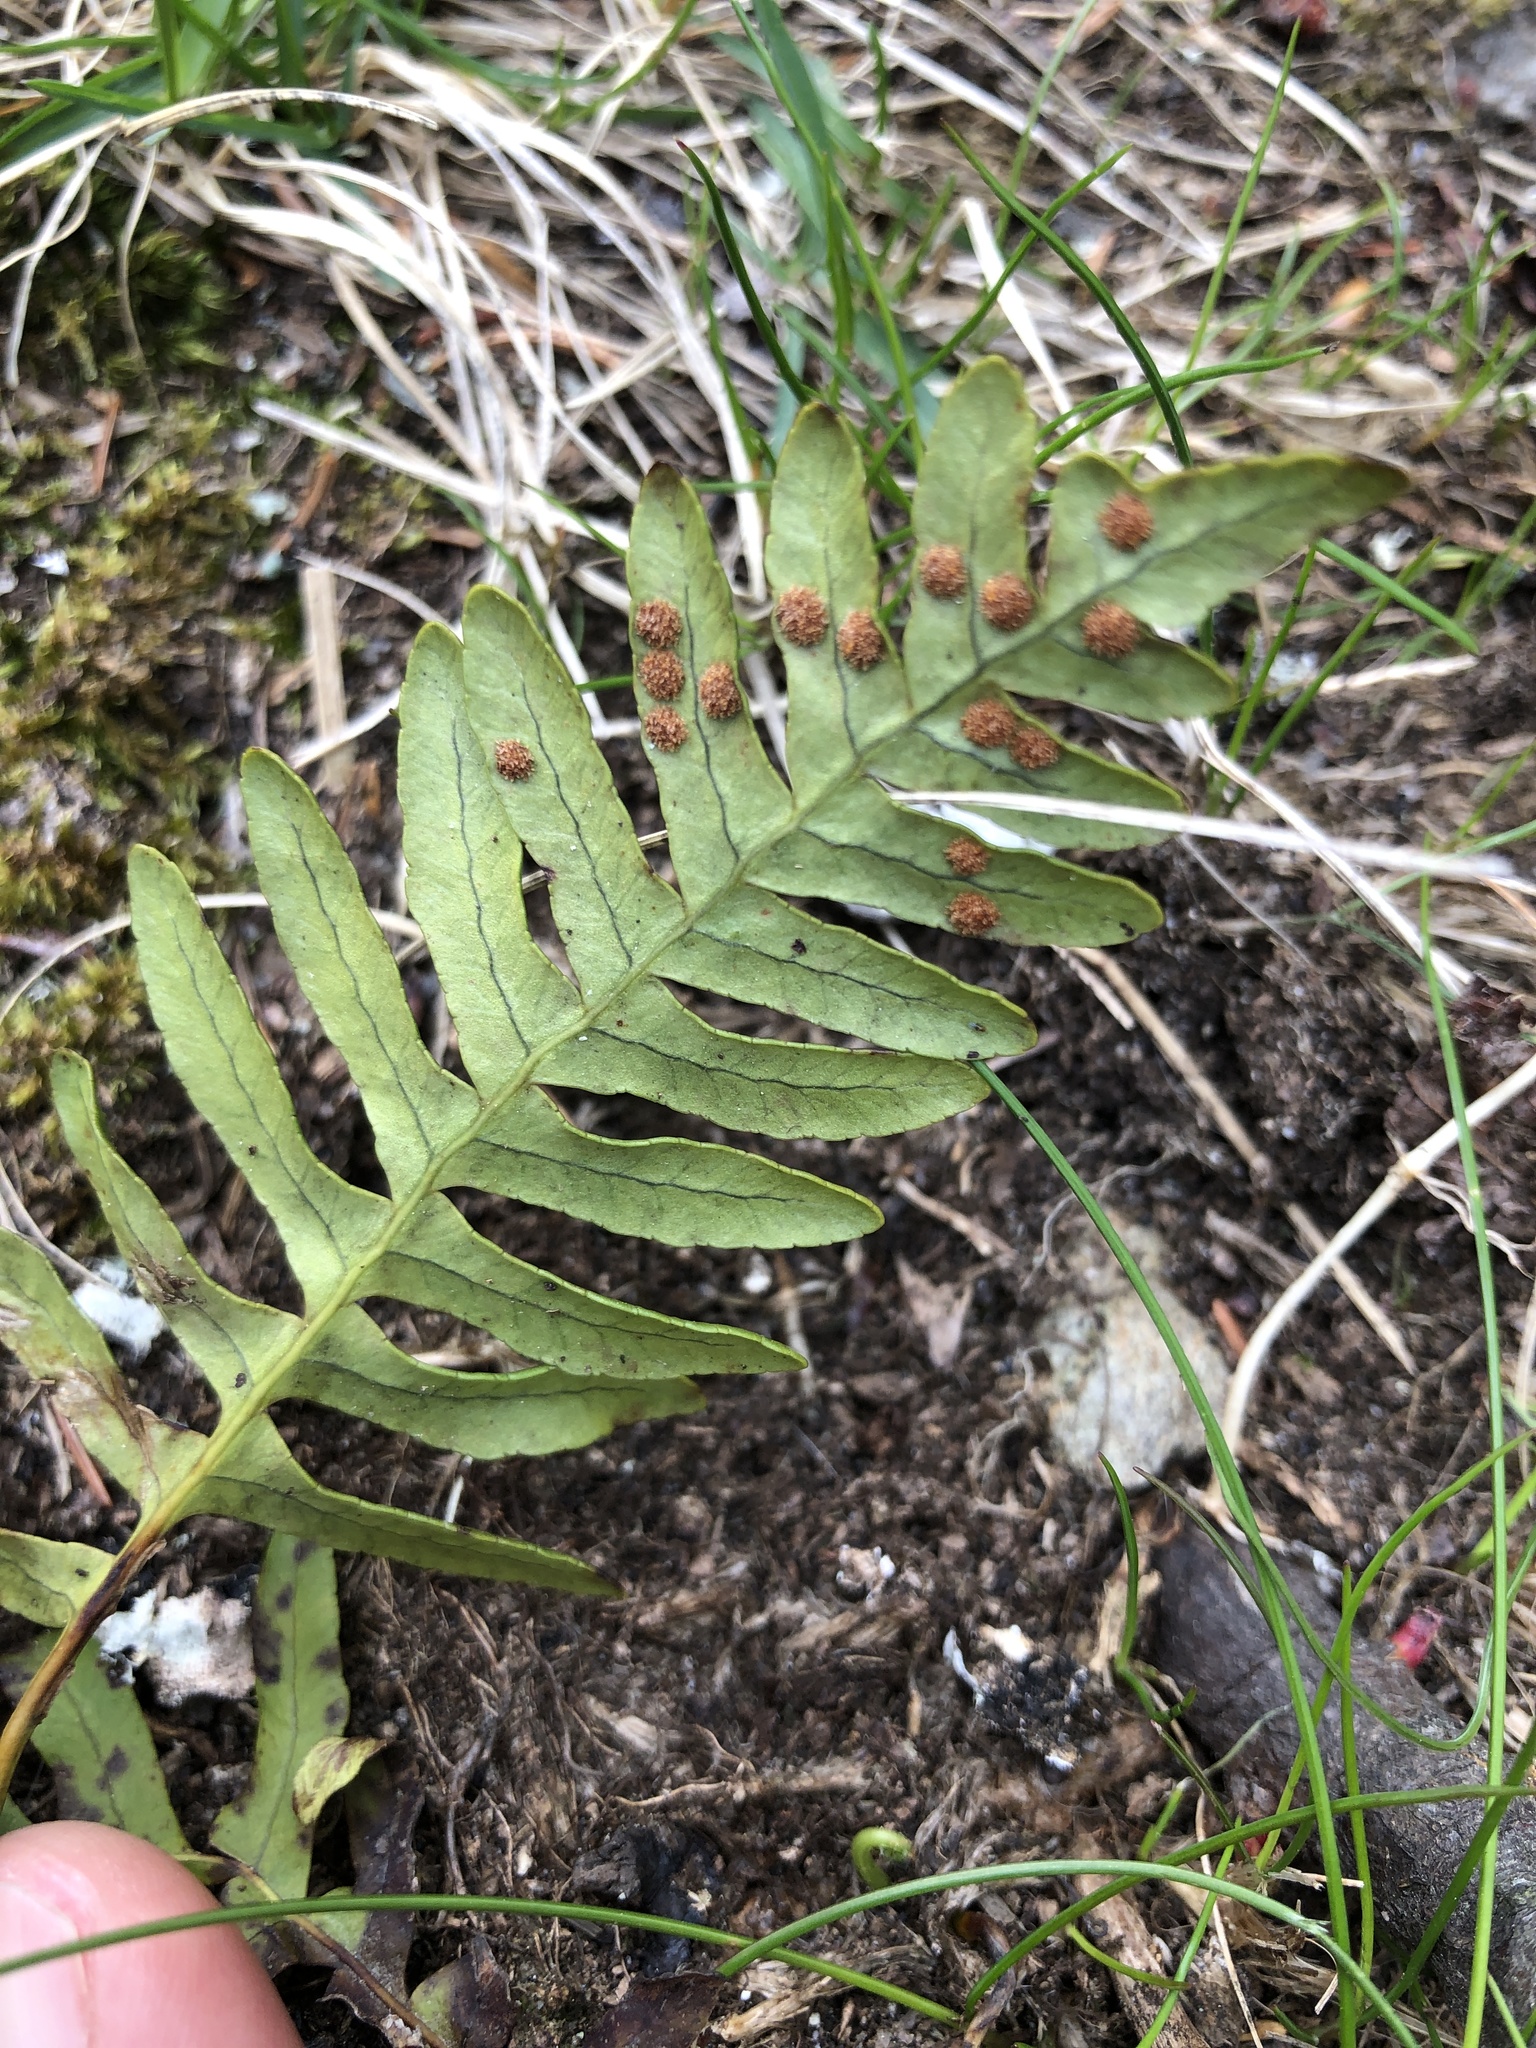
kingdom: Plantae
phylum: Tracheophyta
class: Polypodiopsida
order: Polypodiales
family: Polypodiaceae
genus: Polypodium
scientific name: Polypodium virginianum
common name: American wall fern
